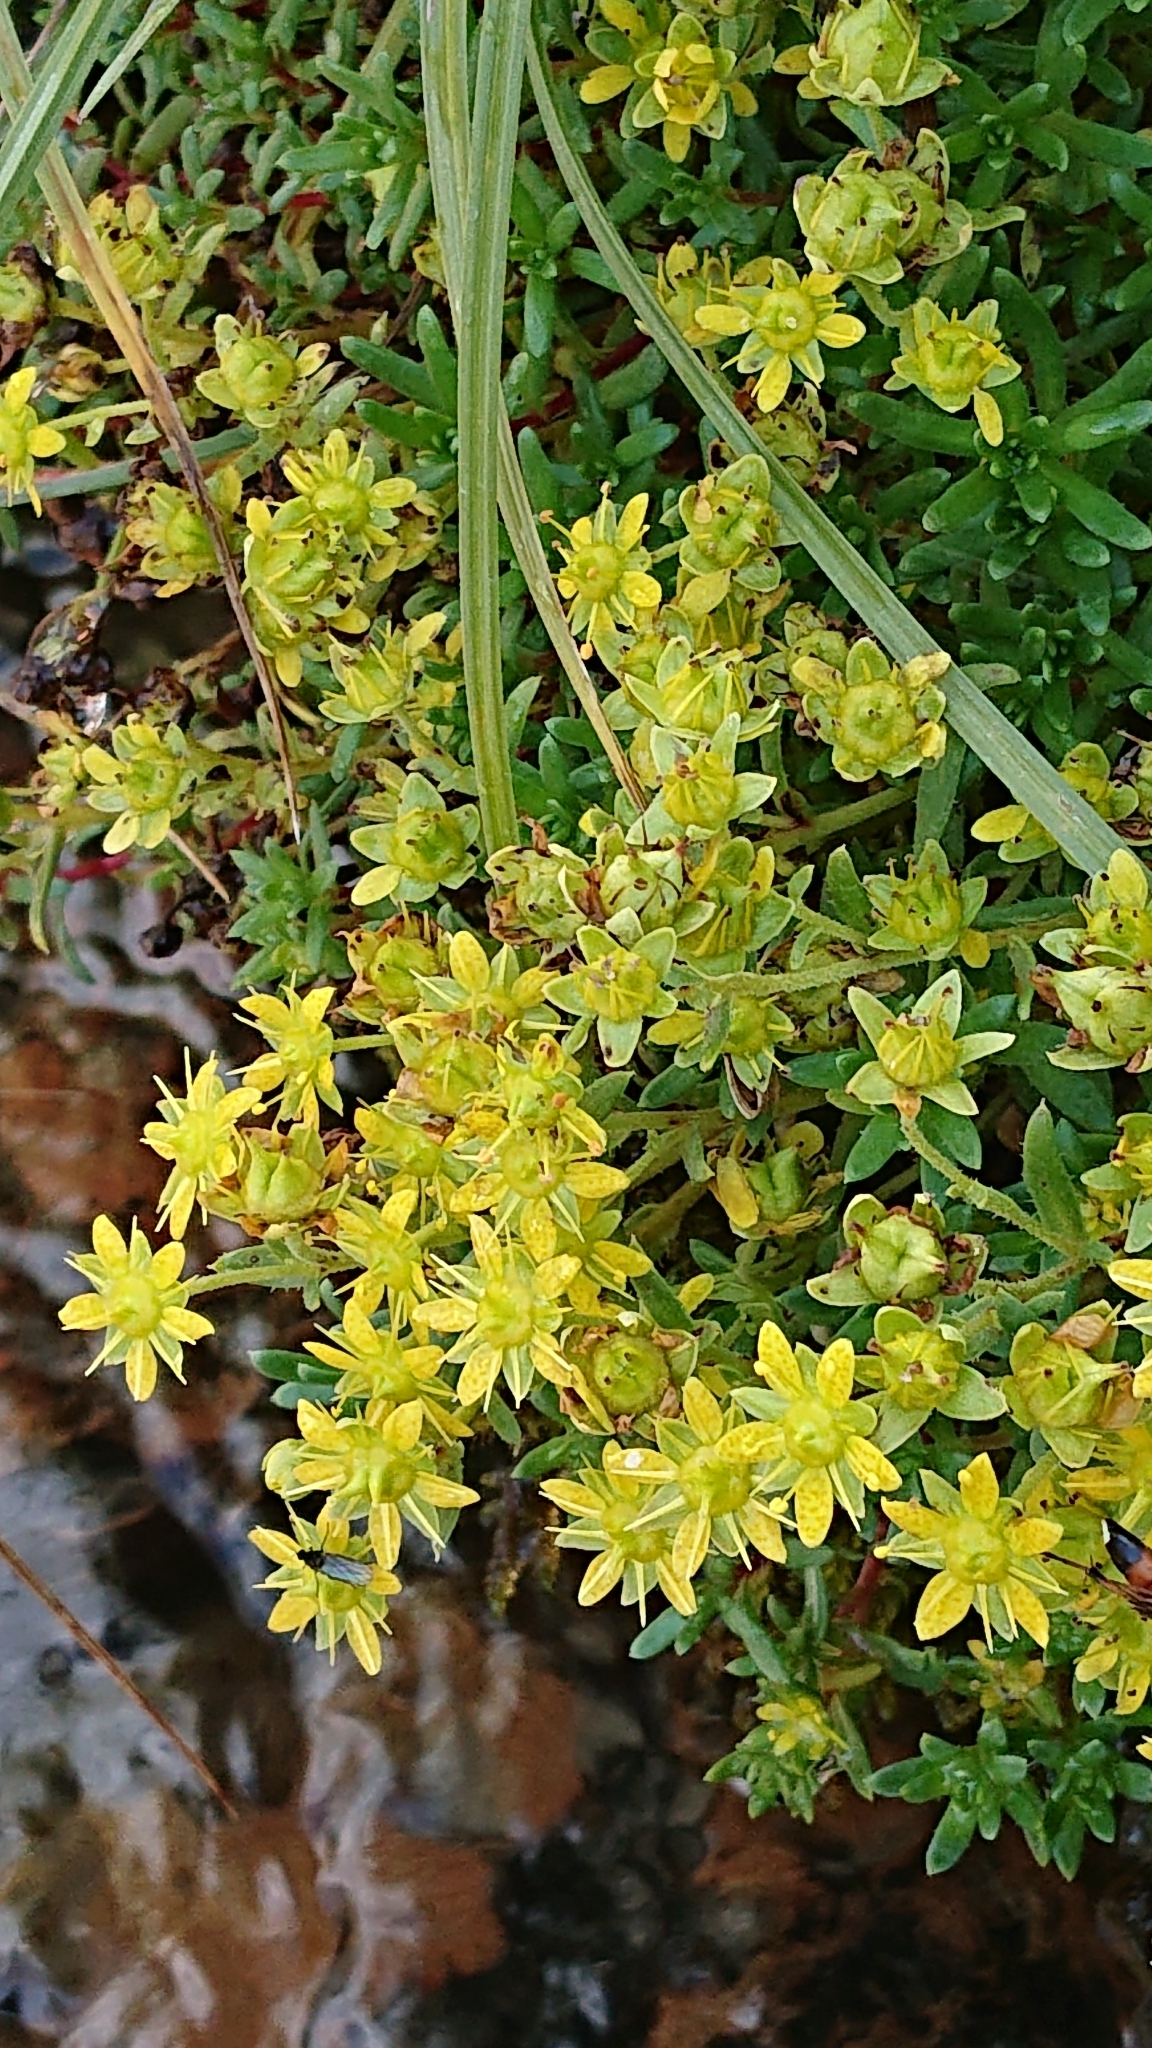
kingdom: Plantae
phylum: Tracheophyta
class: Magnoliopsida
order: Saxifragales
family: Saxifragaceae
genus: Saxifraga
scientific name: Saxifraga aizoides
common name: Yellow mountain saxifrage
